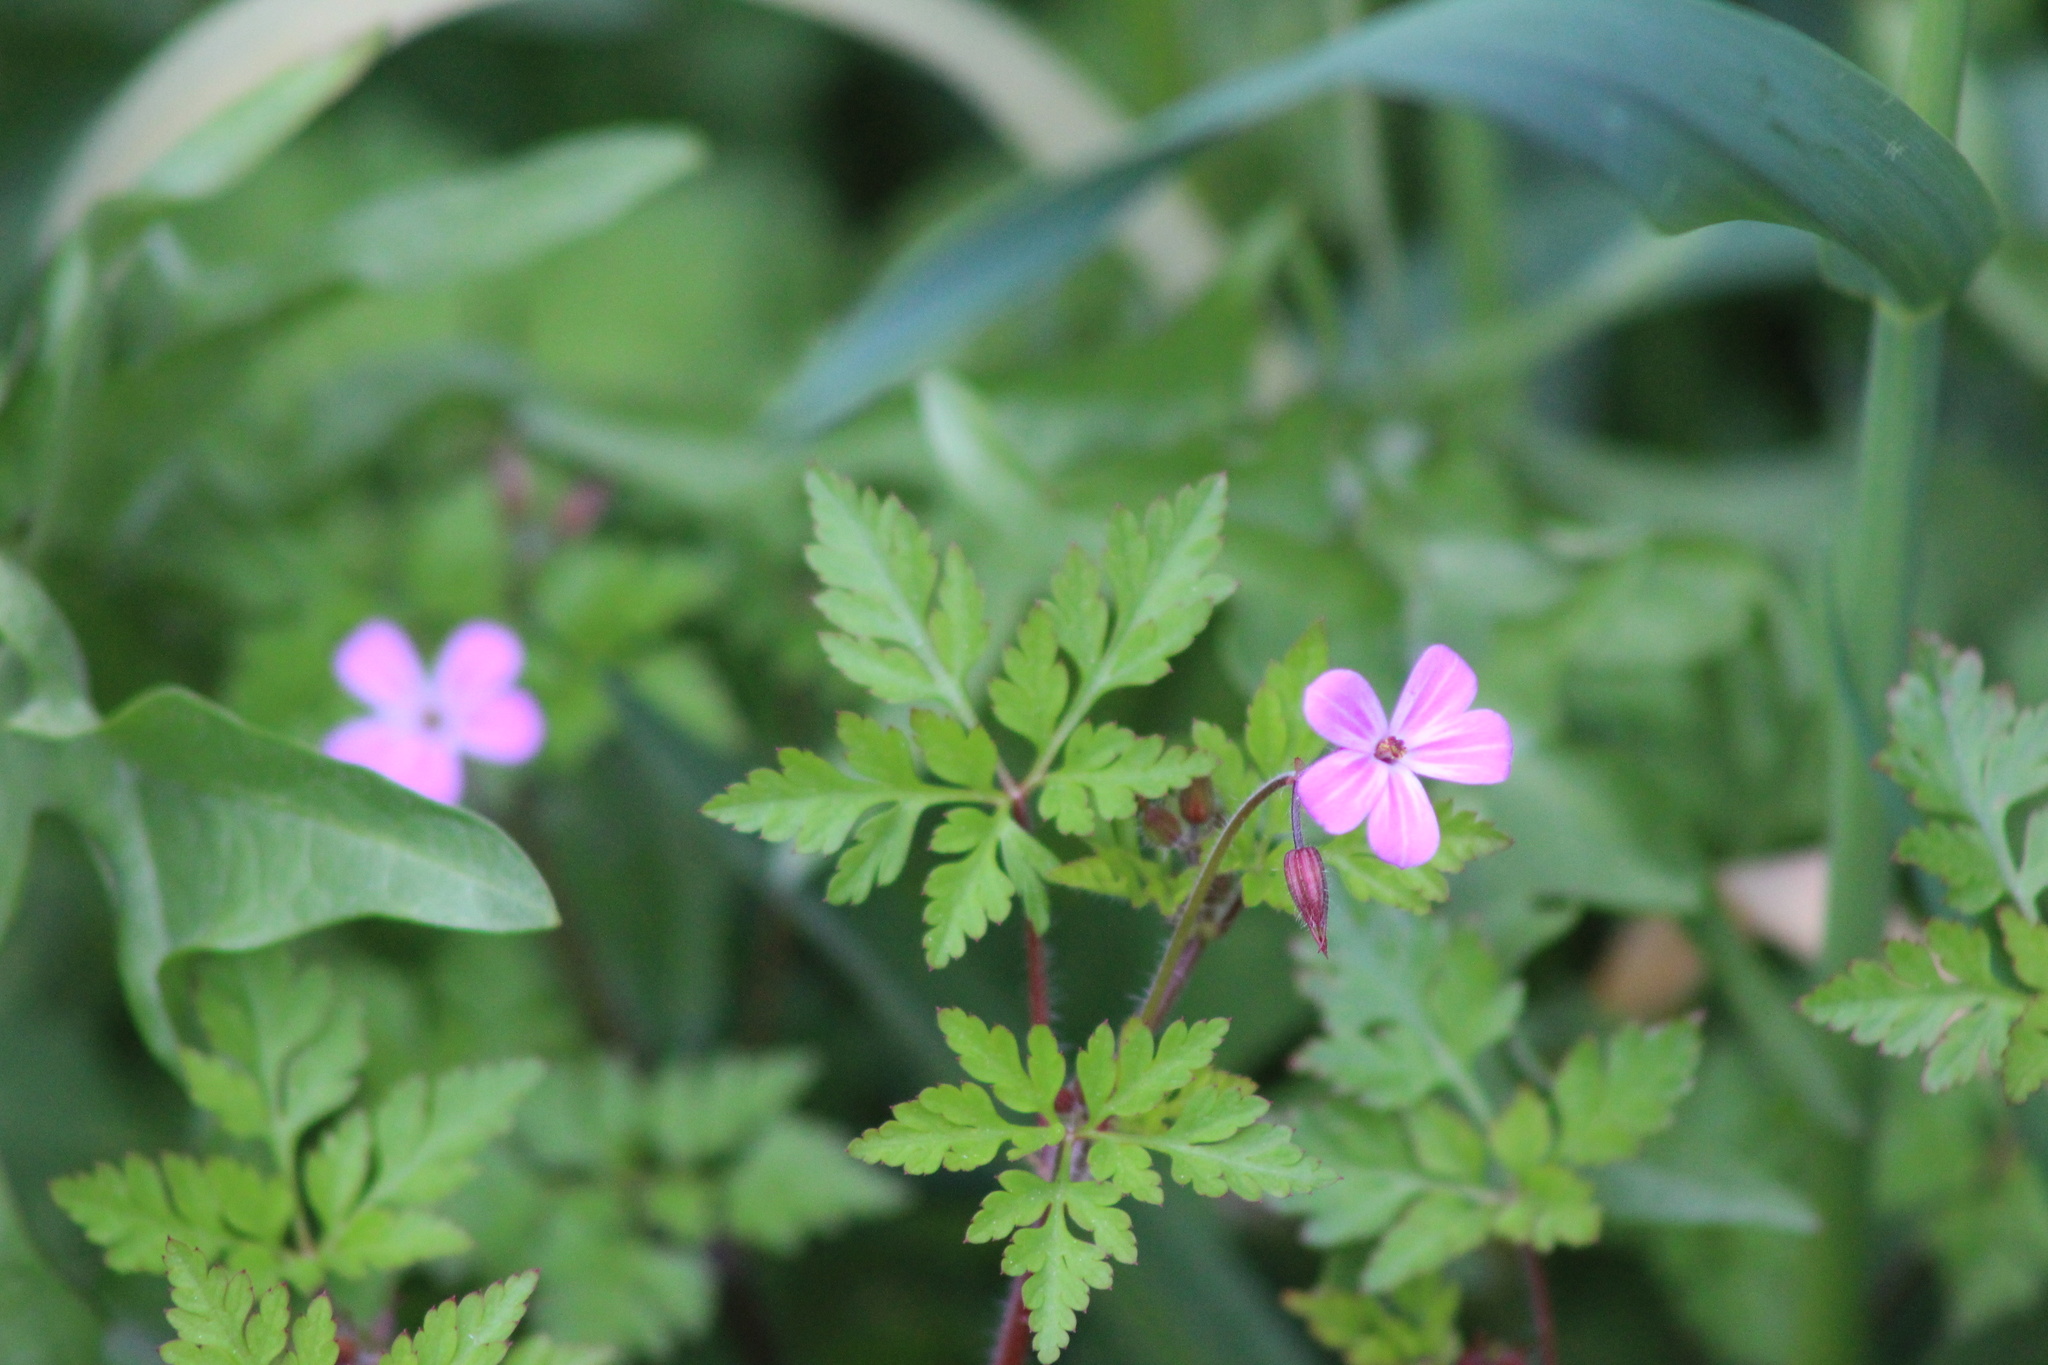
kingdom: Plantae
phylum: Tracheophyta
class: Magnoliopsida
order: Geraniales
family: Geraniaceae
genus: Geranium
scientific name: Geranium robertianum
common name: Herb-robert
